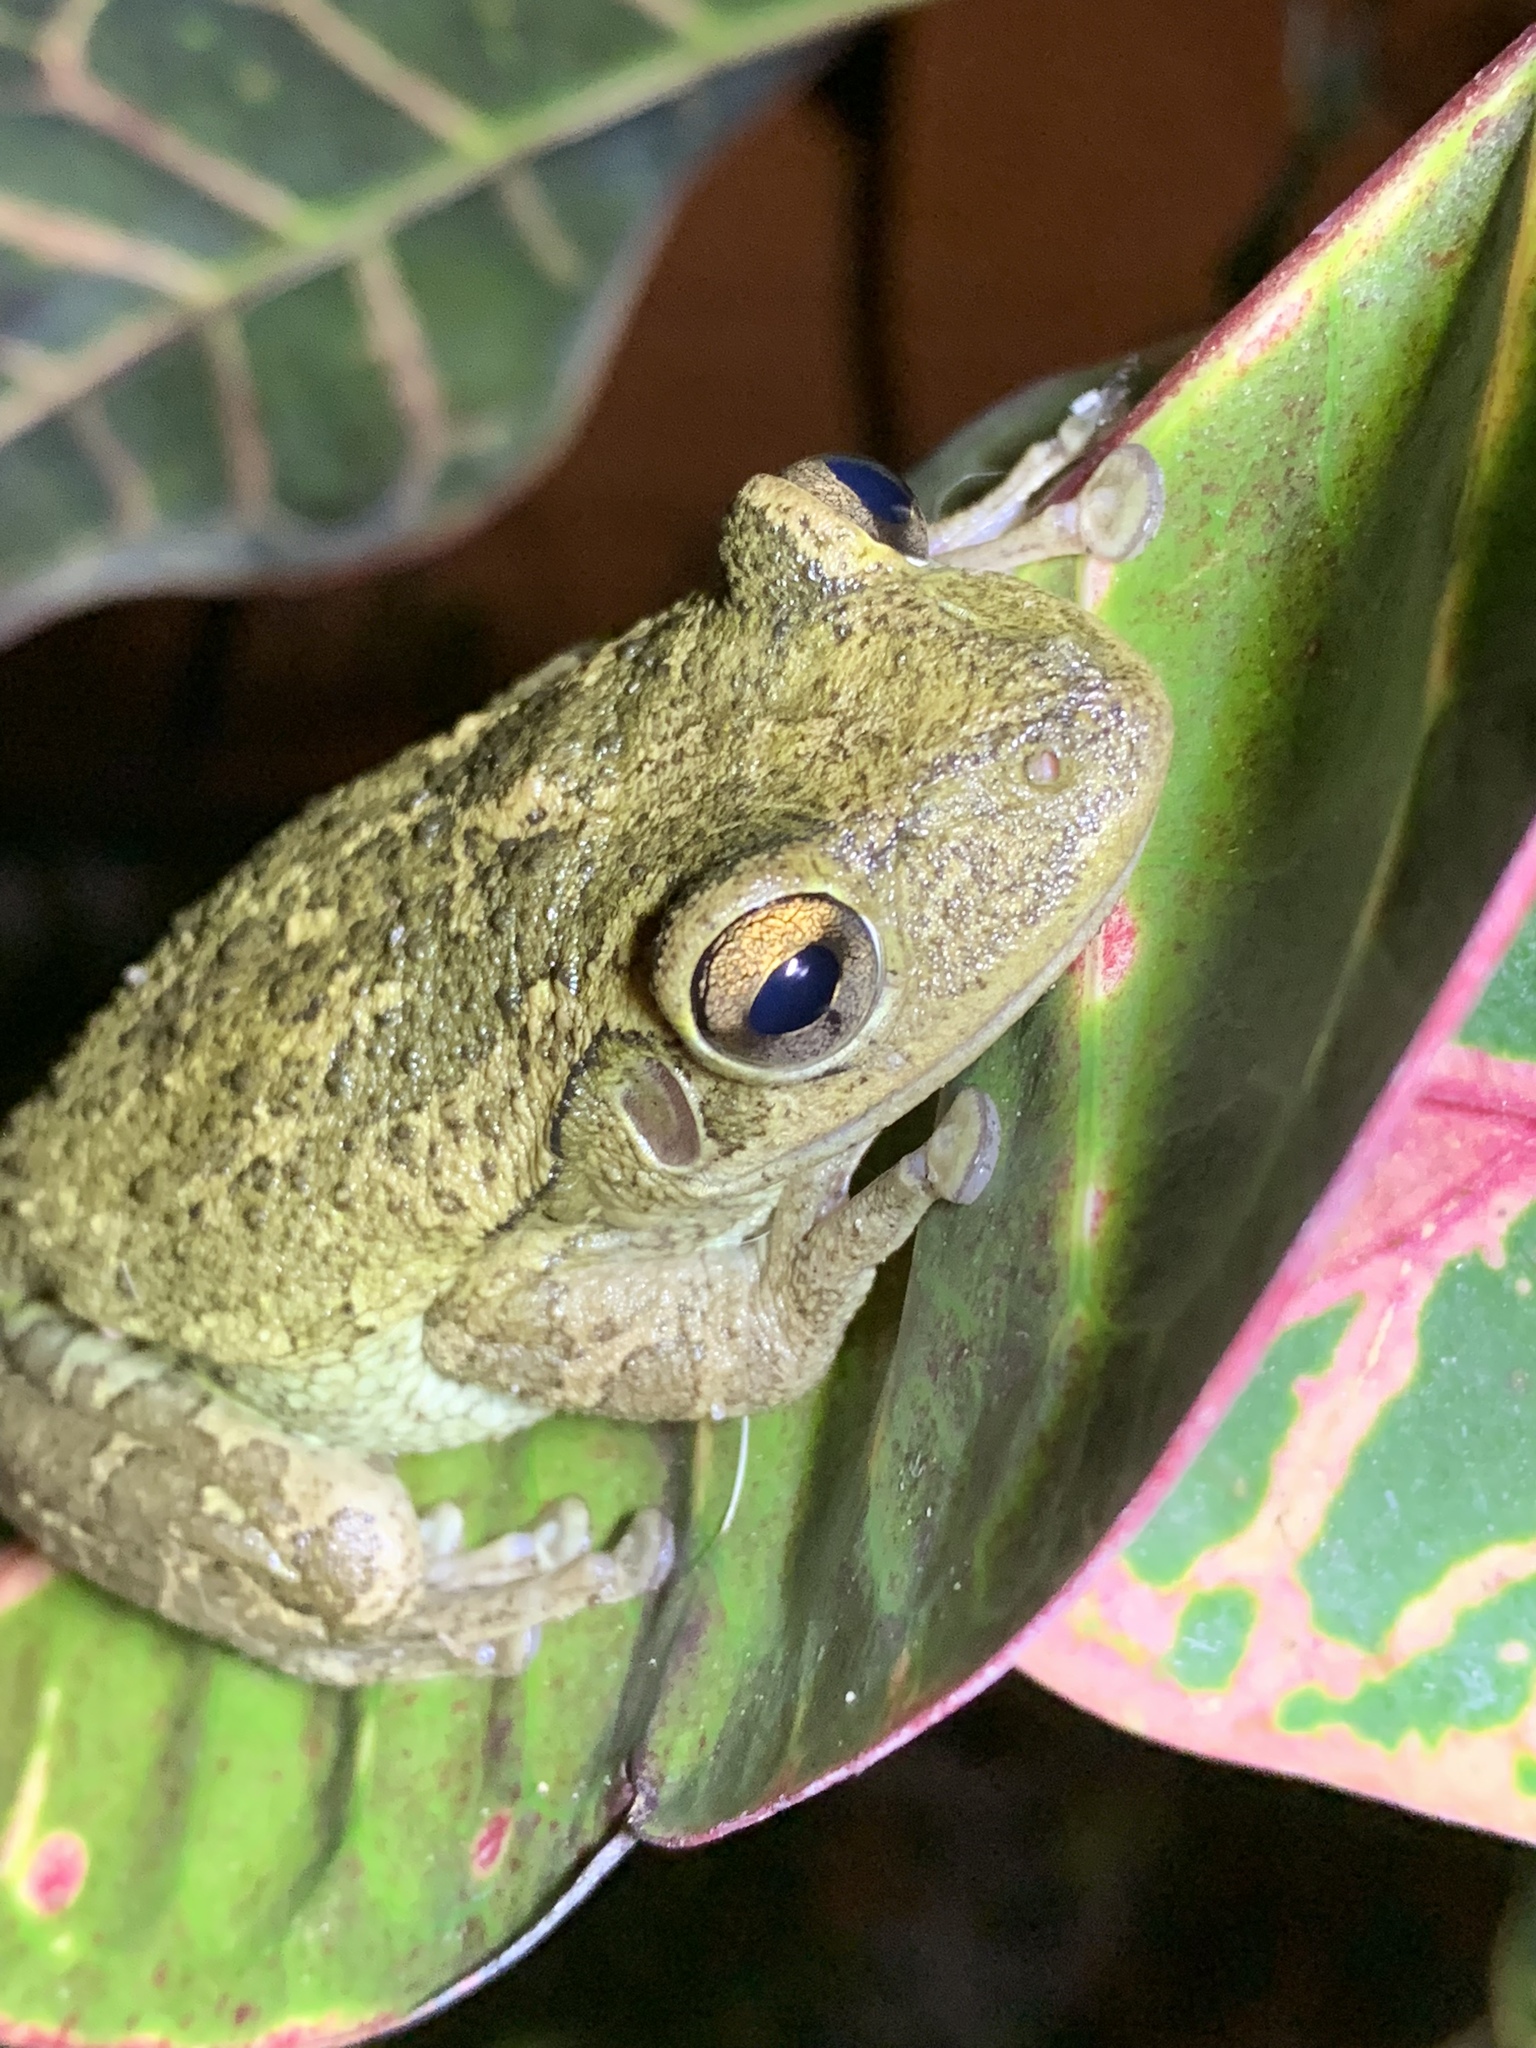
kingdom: Animalia
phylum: Chordata
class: Amphibia
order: Anura
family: Hylidae
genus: Osteopilus
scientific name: Osteopilus septentrionalis
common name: Cuban treefrog
